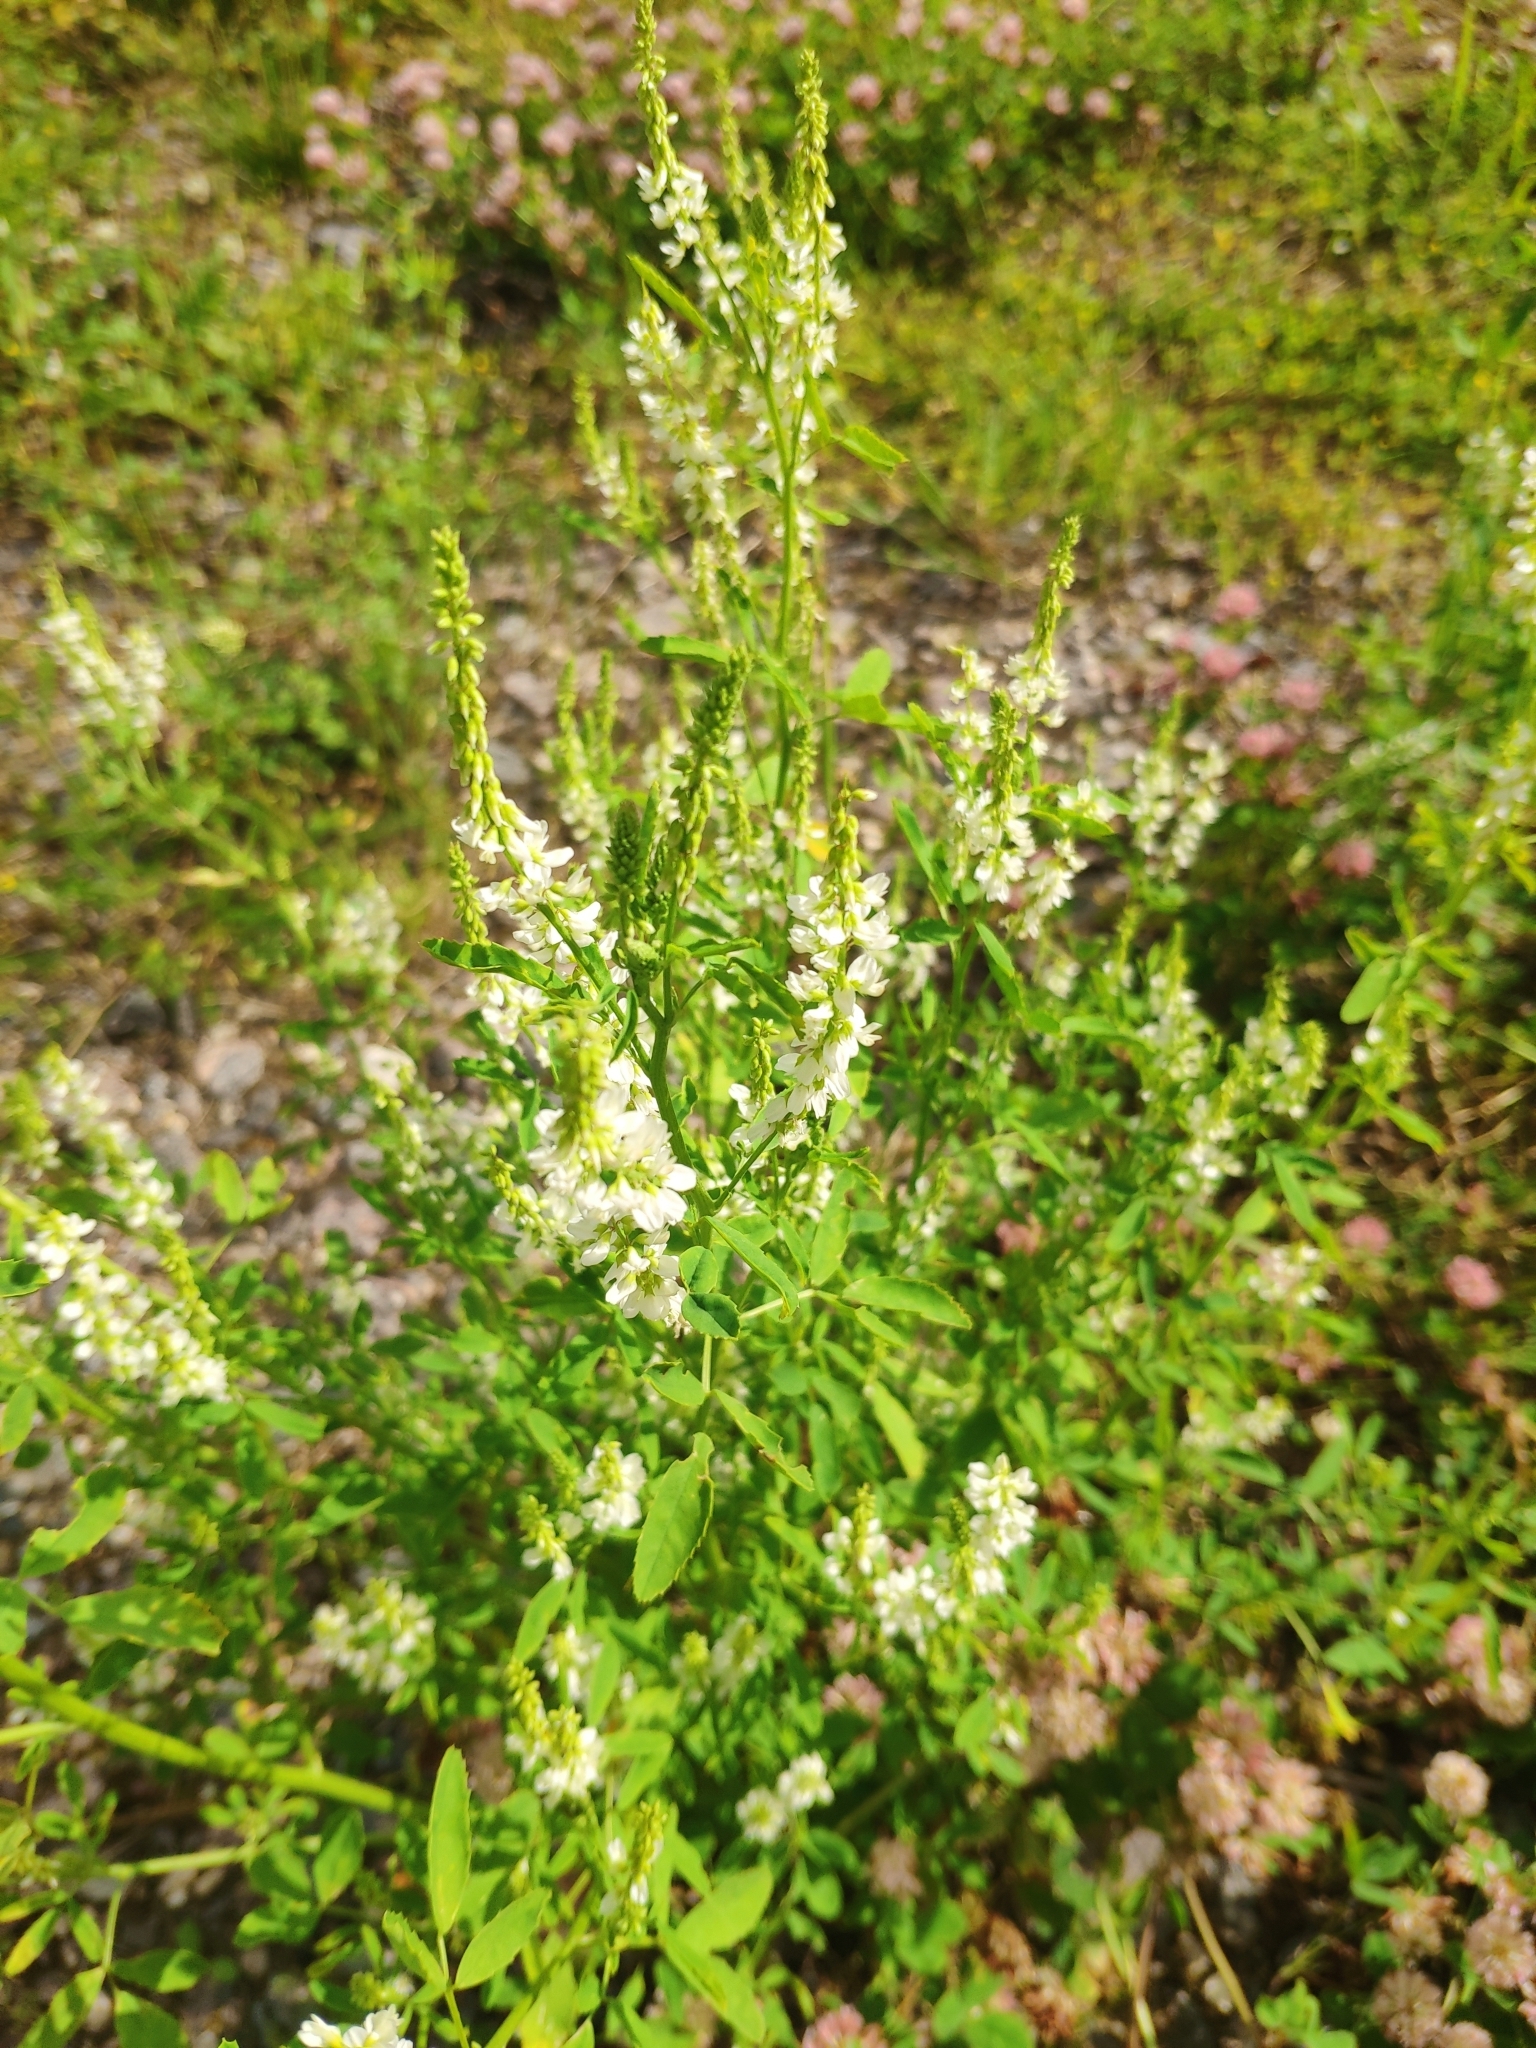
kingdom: Plantae
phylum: Tracheophyta
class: Magnoliopsida
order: Fabales
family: Fabaceae
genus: Melilotus
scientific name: Melilotus albus
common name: White melilot
